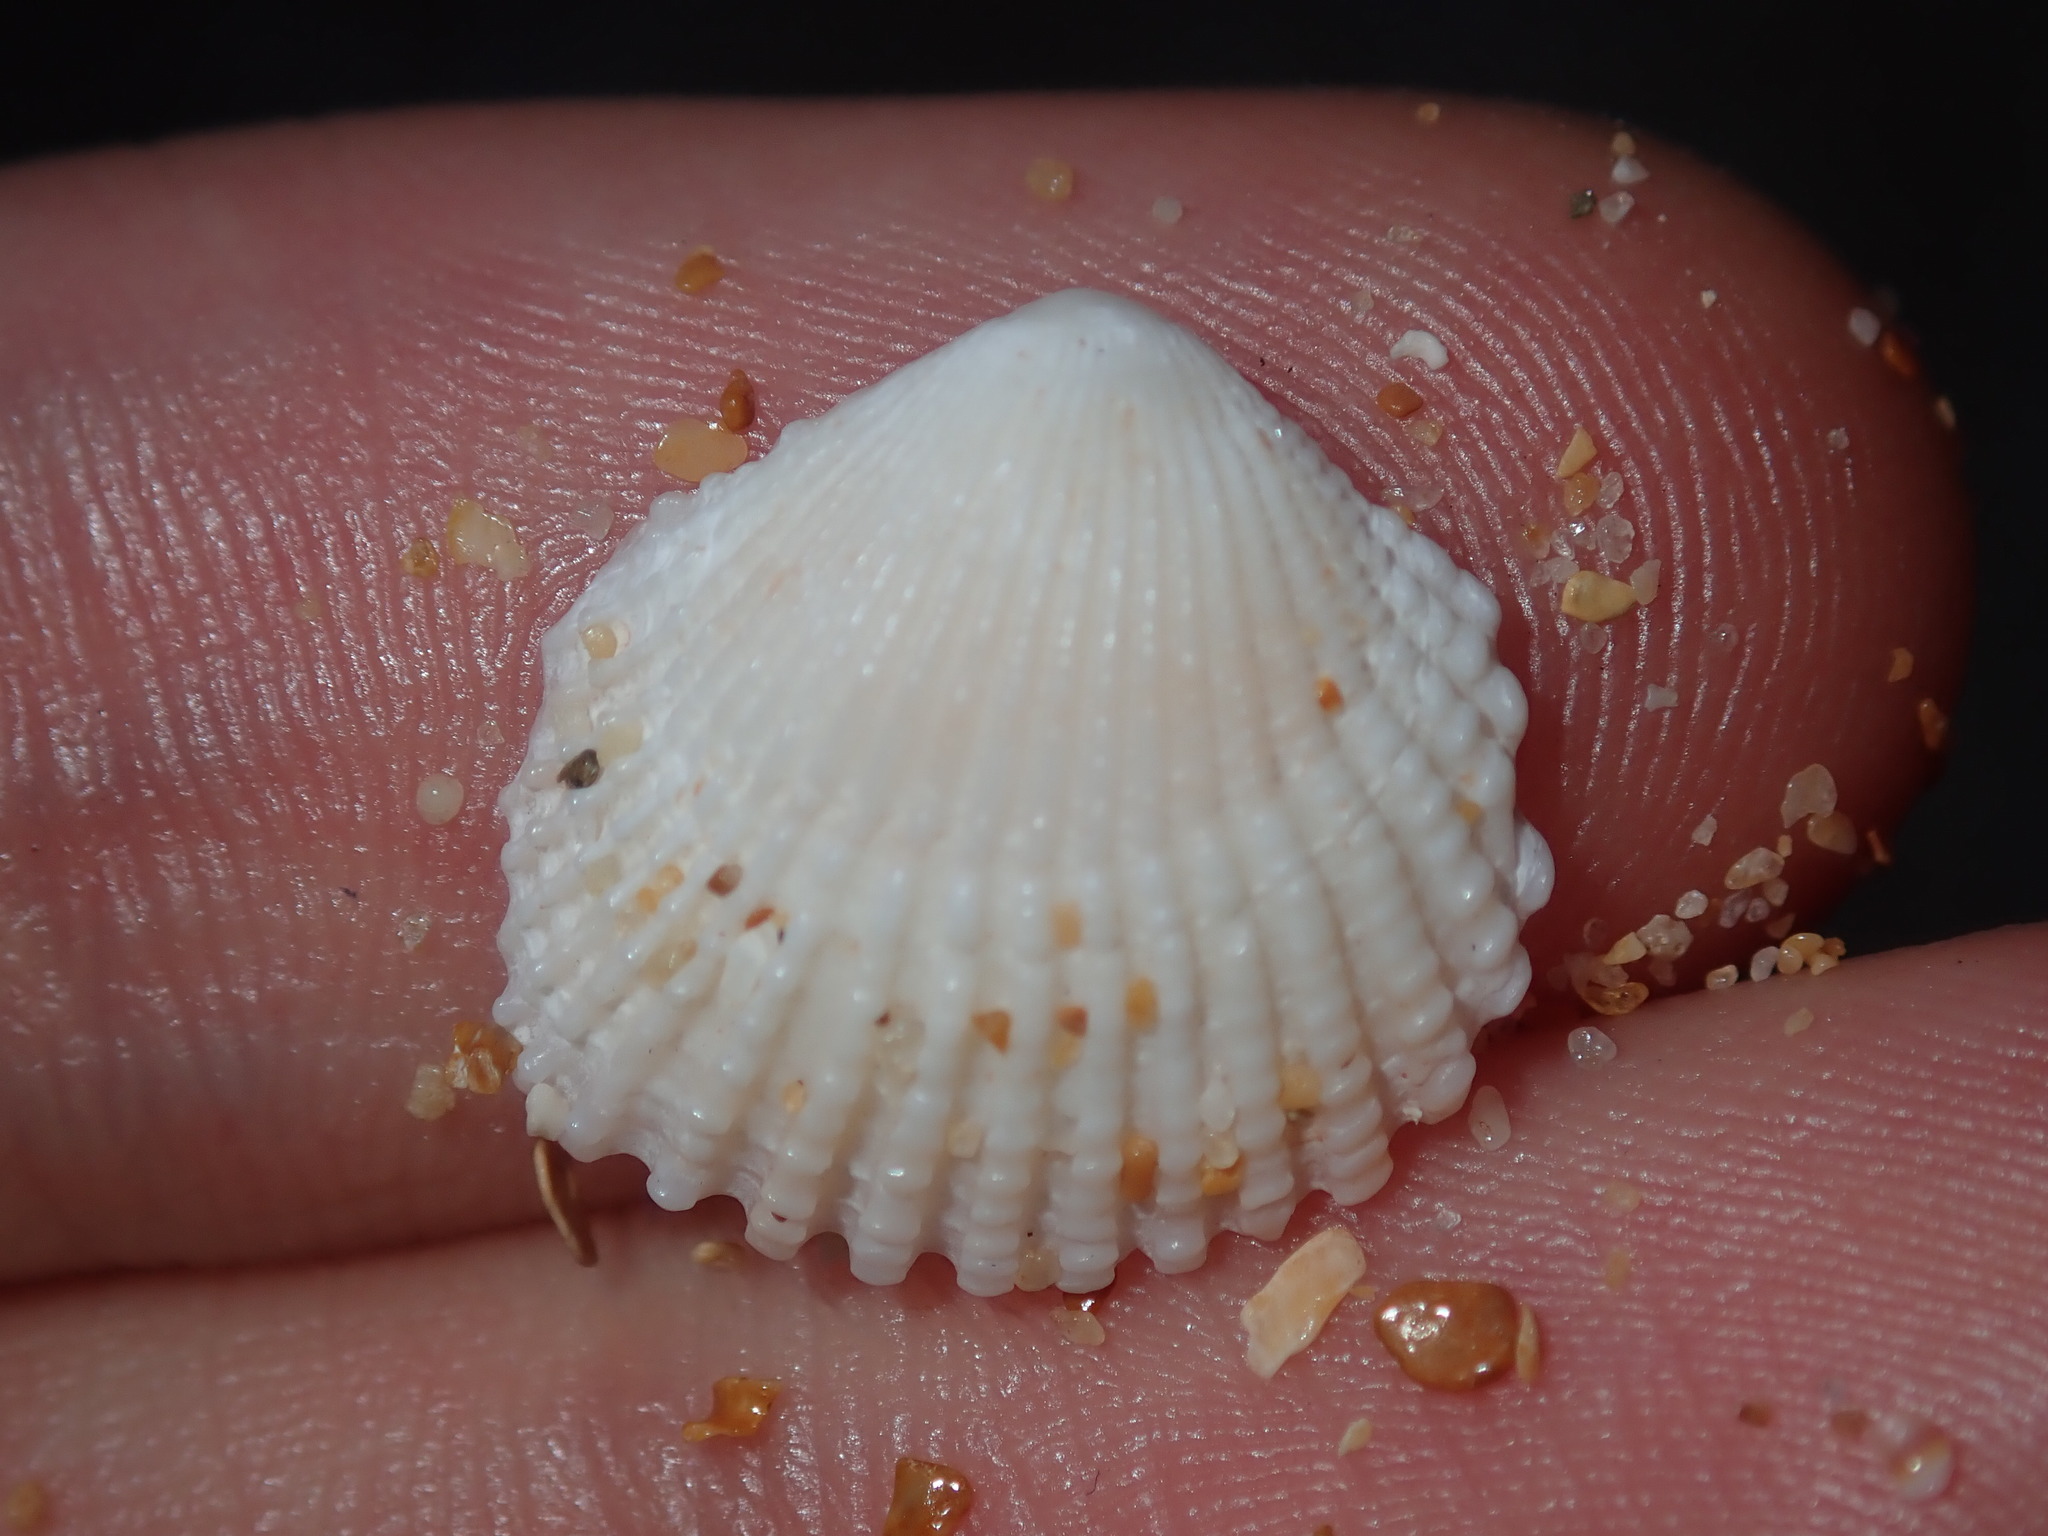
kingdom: Animalia
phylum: Mollusca
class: Bivalvia
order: Trigoniida
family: Trigoniidae
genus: Neotrigonia
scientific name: Neotrigonia margaritacea
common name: Brooch clam
